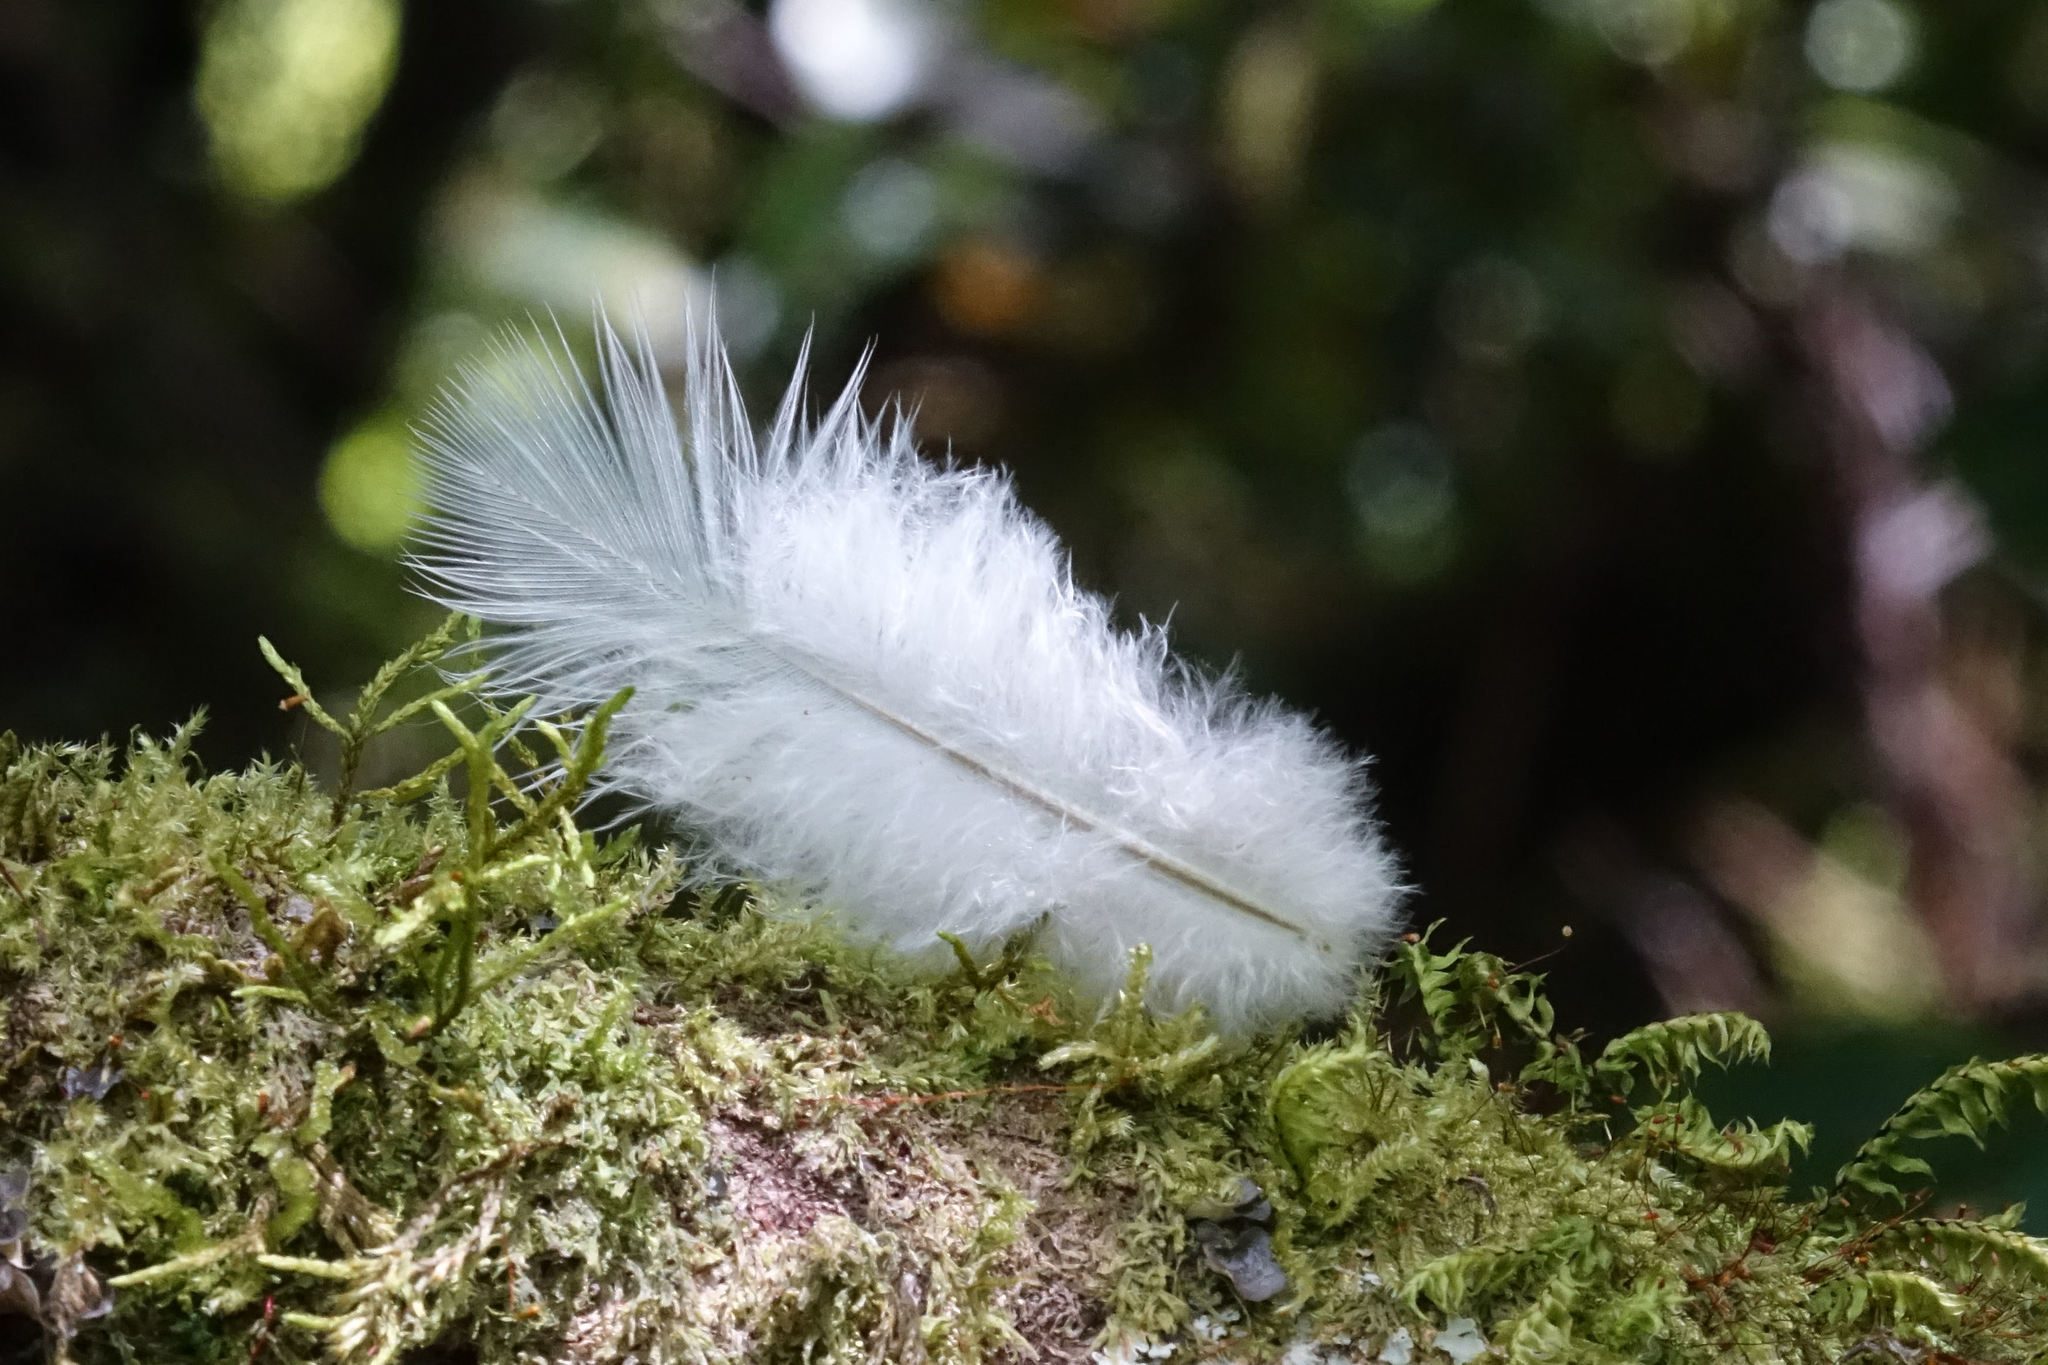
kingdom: Animalia
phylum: Chordata
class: Aves
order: Columbiformes
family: Columbidae
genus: Hemiphaga
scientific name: Hemiphaga novaeseelandiae
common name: New zealand pigeon
